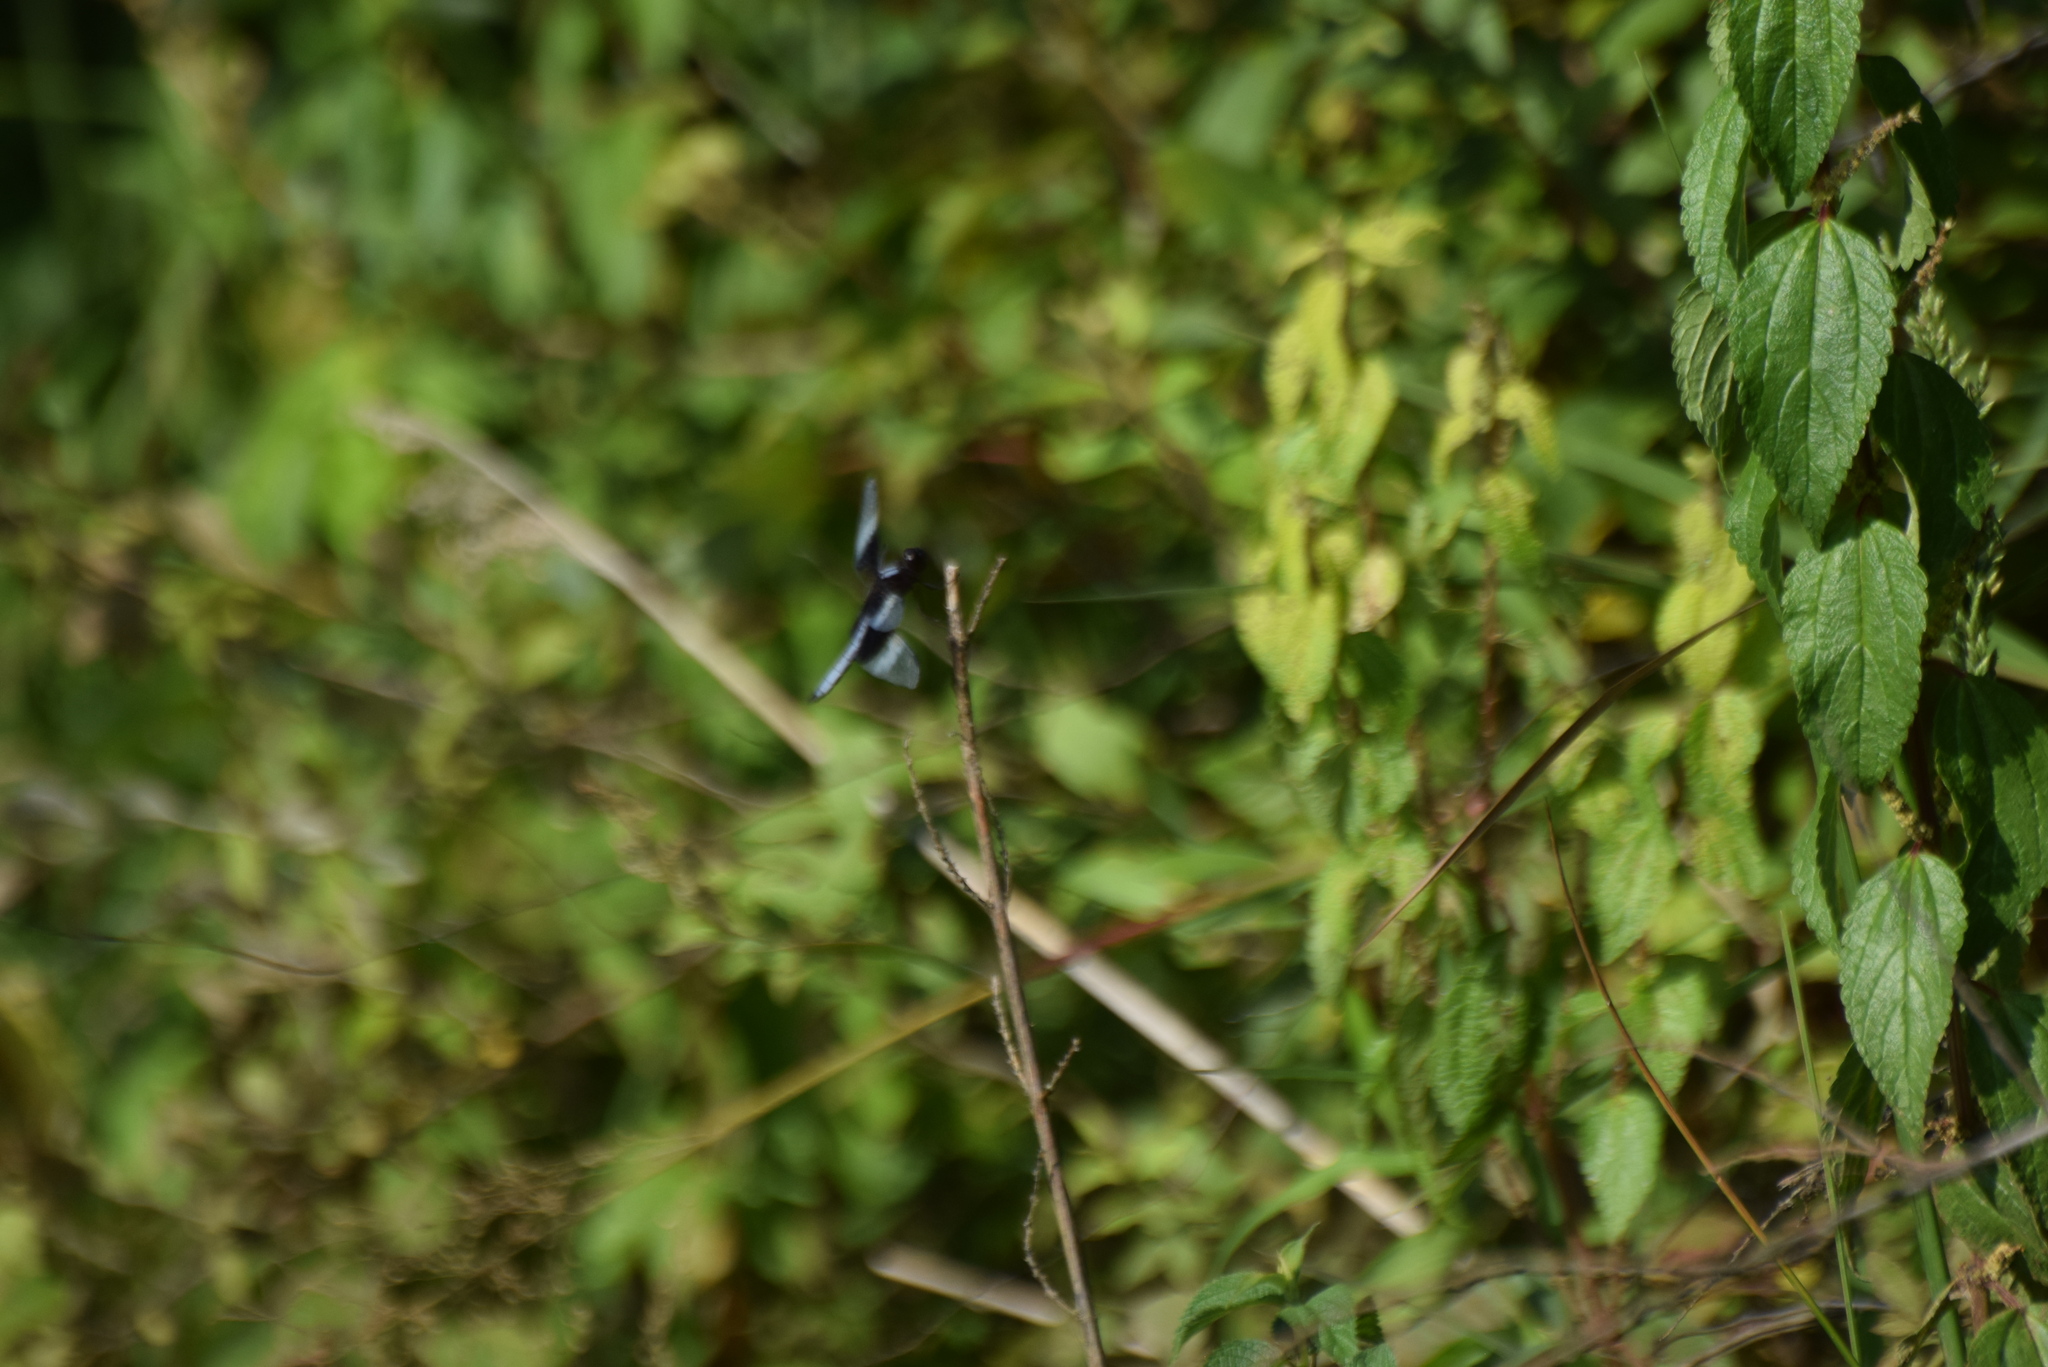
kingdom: Animalia
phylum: Arthropoda
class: Insecta
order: Odonata
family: Libellulidae
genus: Libellula
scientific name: Libellula luctuosa
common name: Widow skimmer
